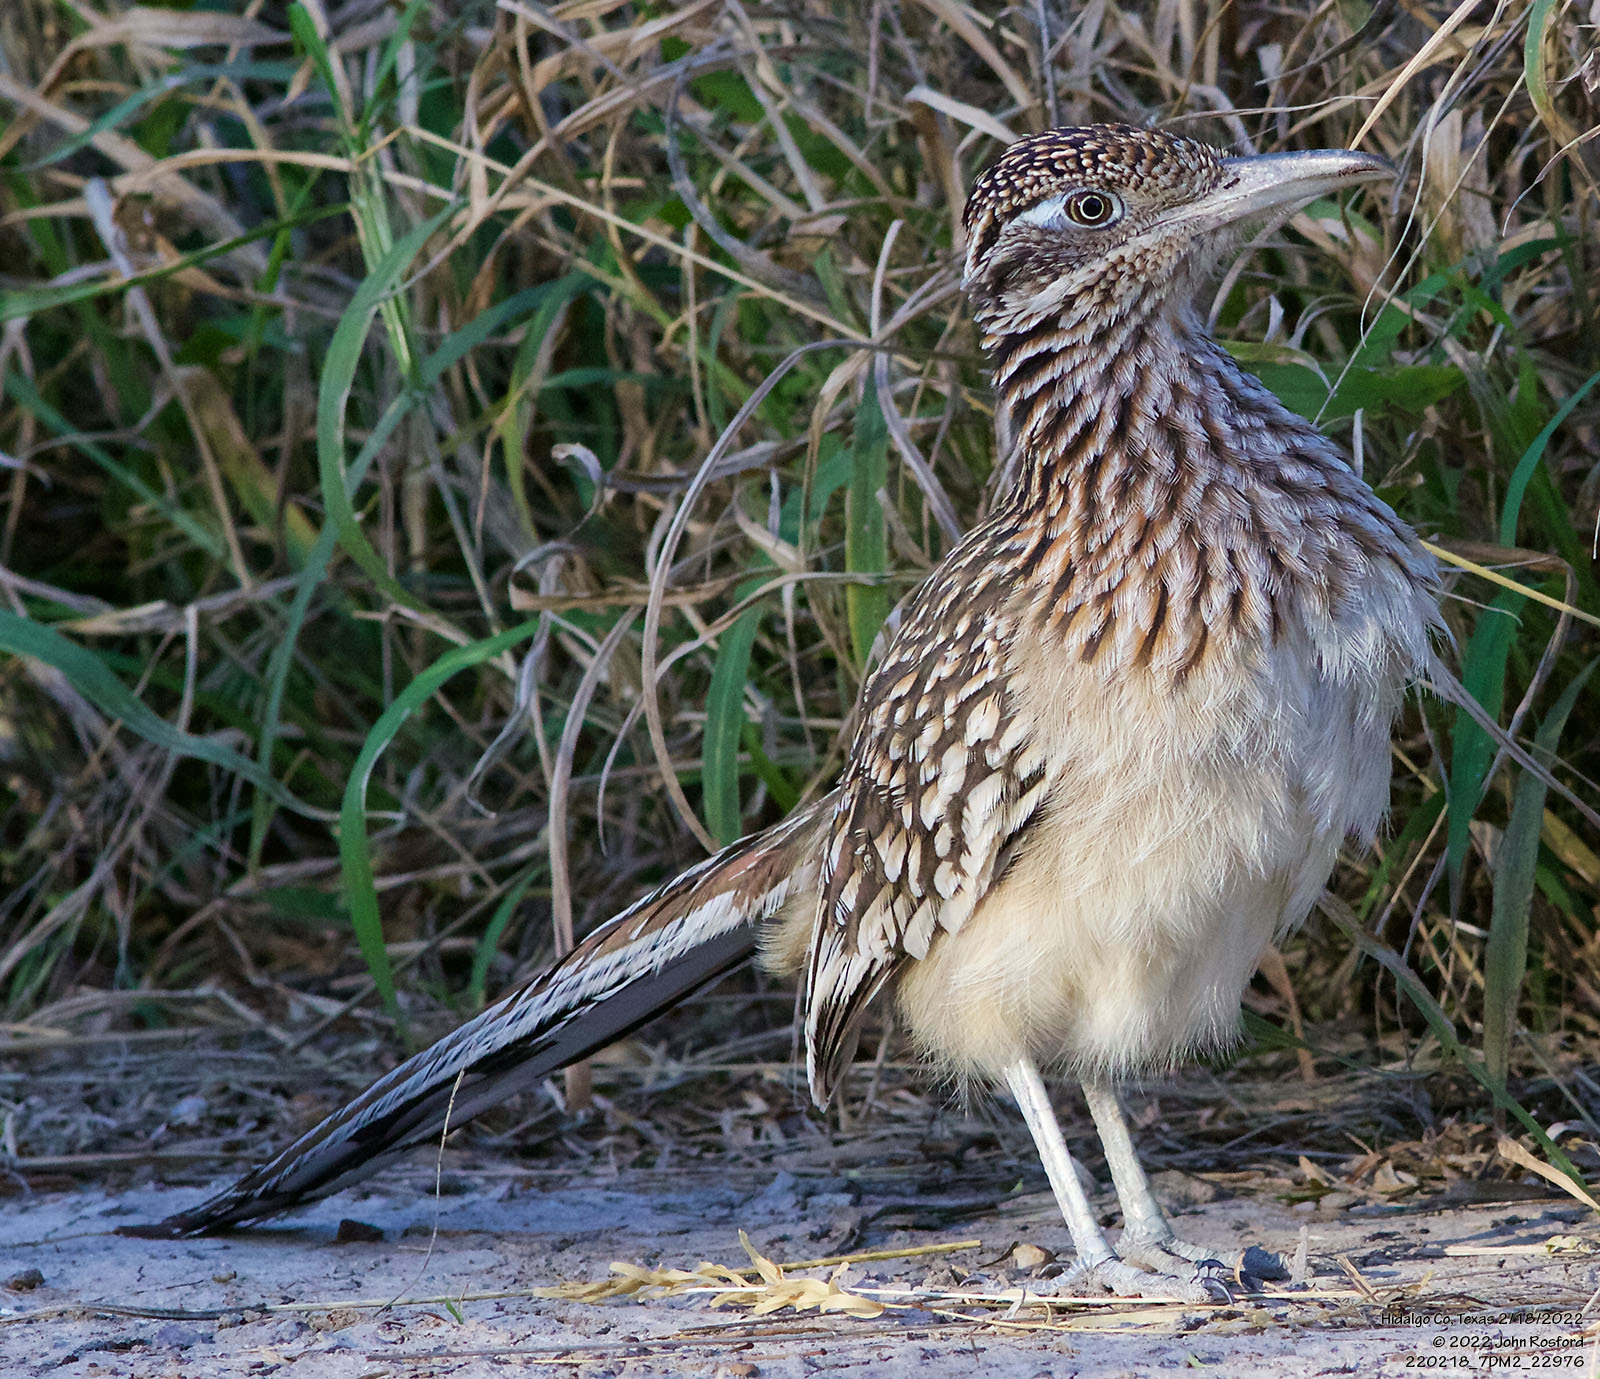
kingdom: Animalia
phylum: Chordata
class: Aves
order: Cuculiformes
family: Cuculidae
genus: Geococcyx
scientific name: Geococcyx californianus
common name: Greater roadrunner
